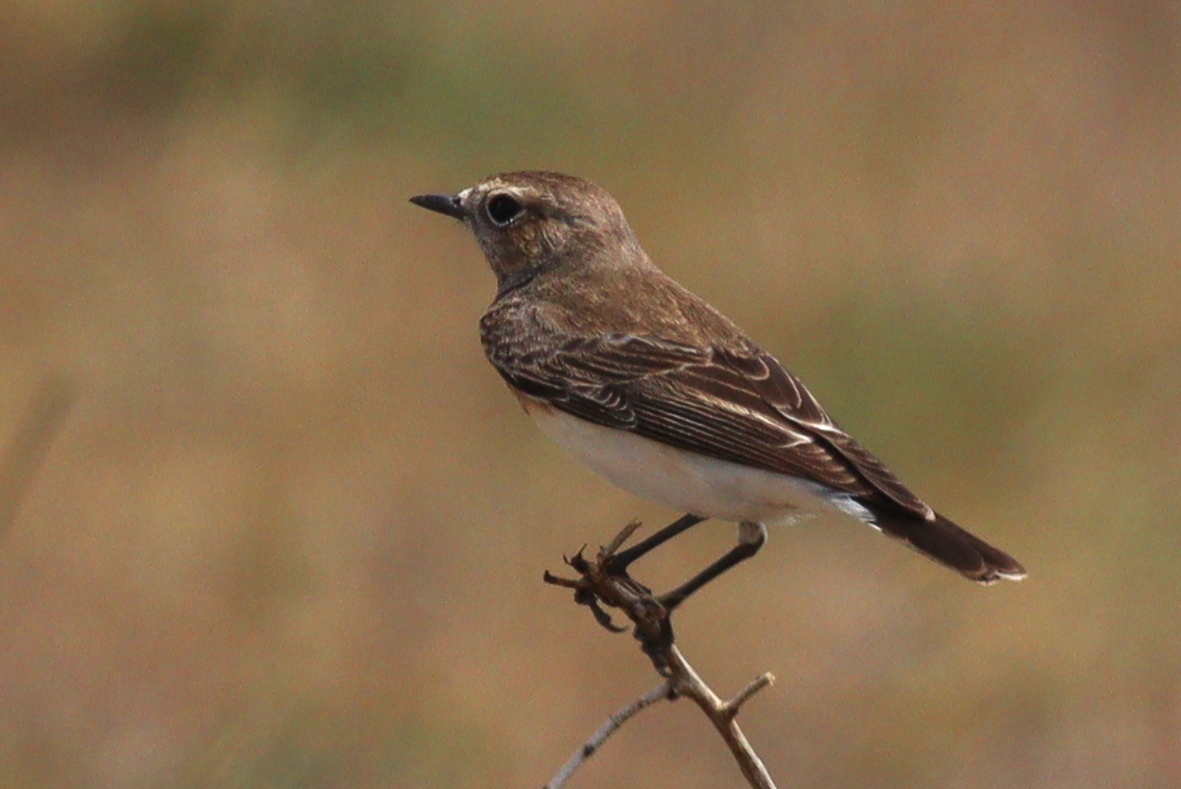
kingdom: Animalia
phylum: Chordata
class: Aves
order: Passeriformes
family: Muscicapidae
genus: Oenanthe
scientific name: Oenanthe pleschanka
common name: Pied wheatear
